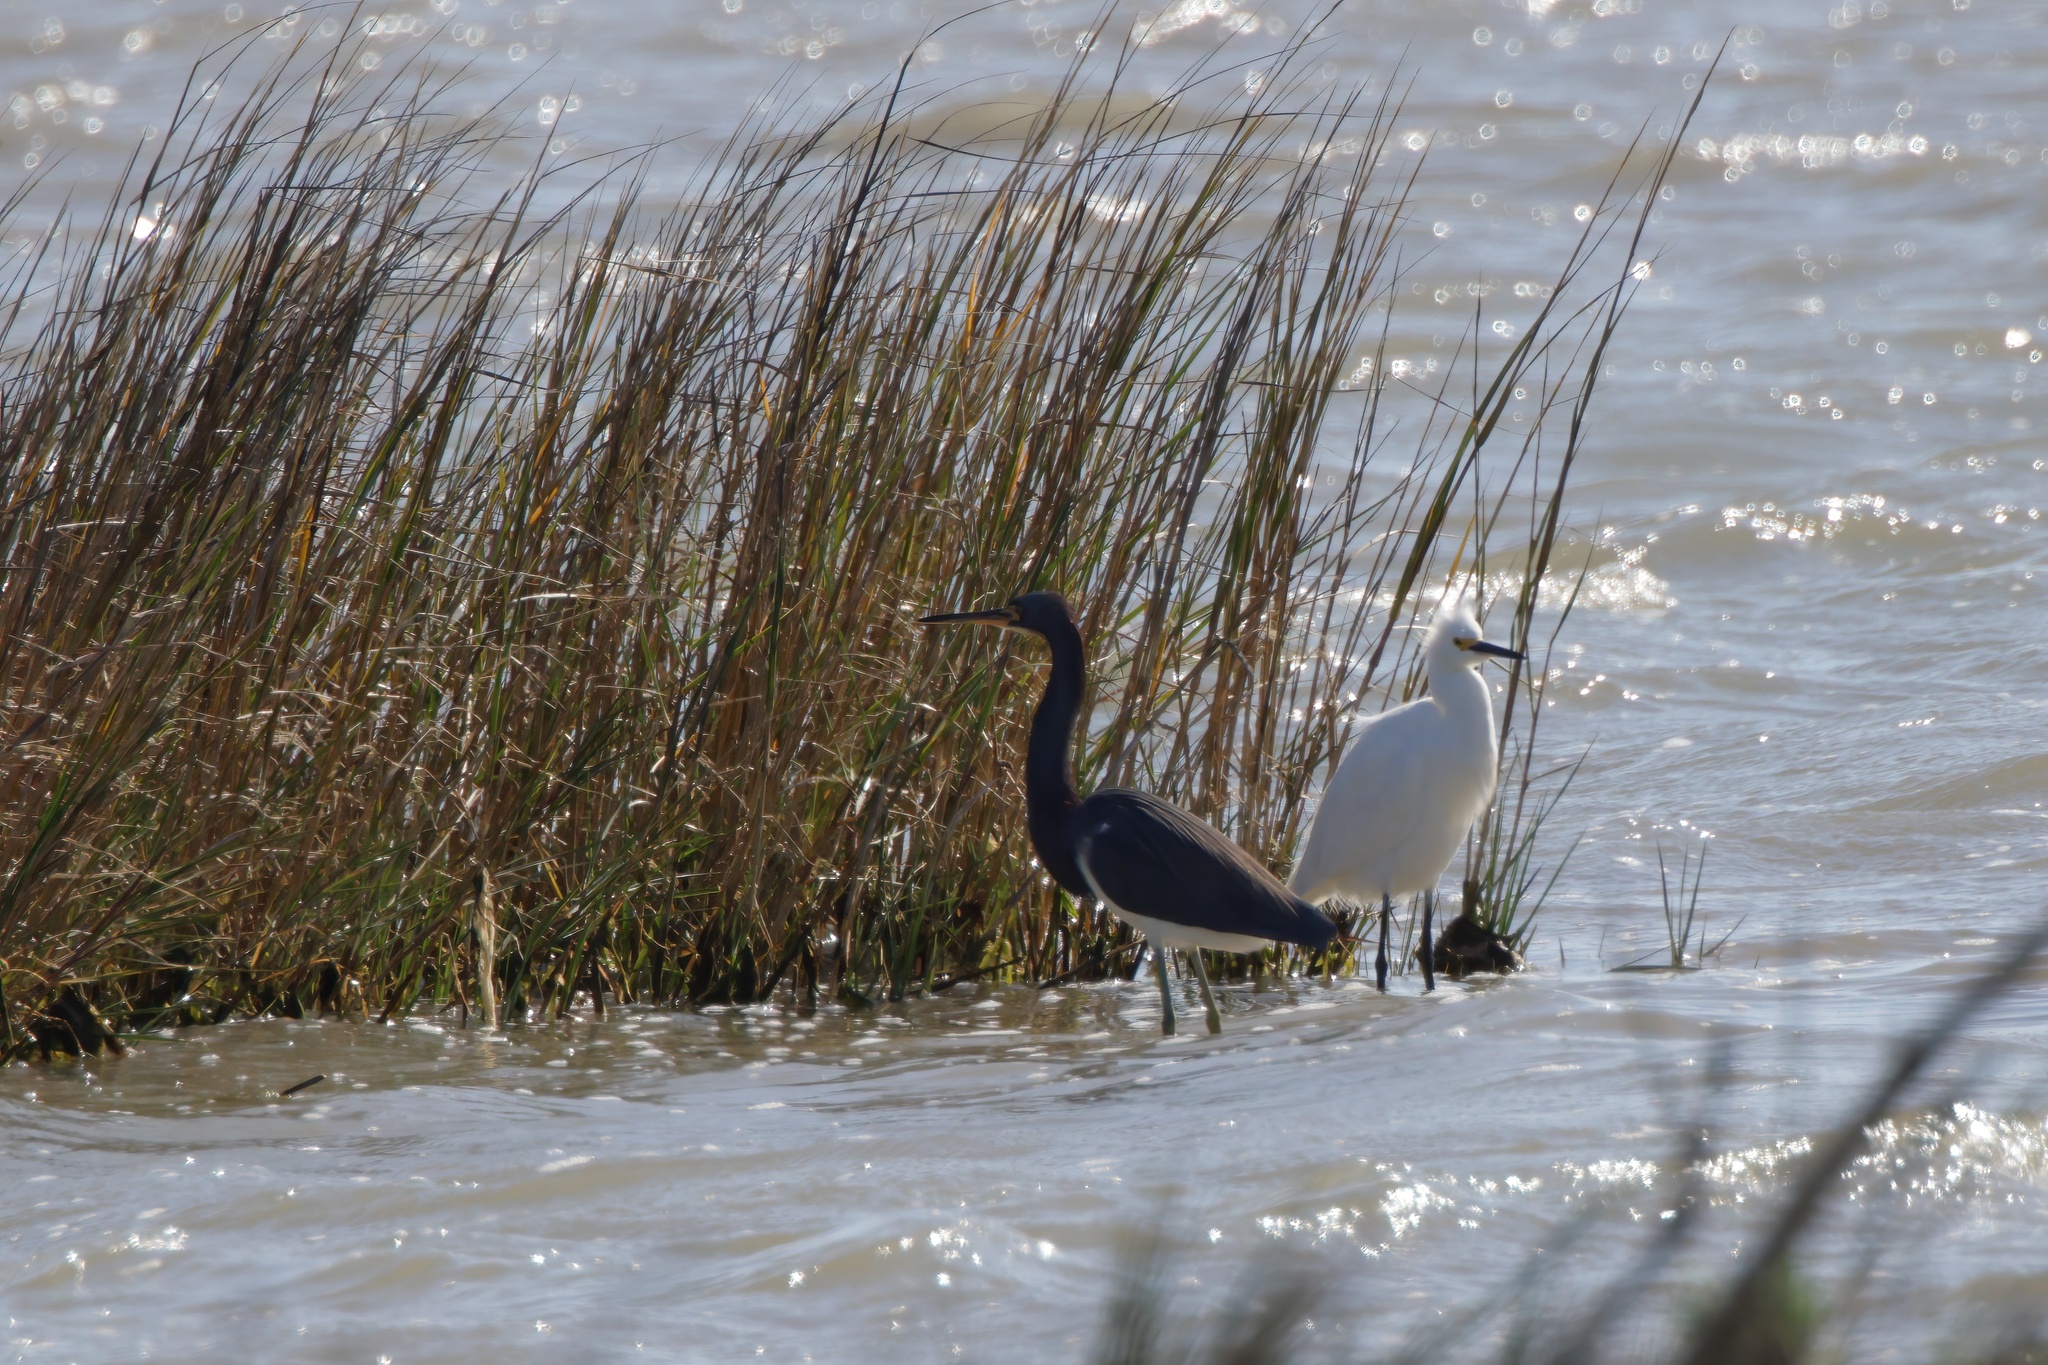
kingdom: Animalia
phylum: Chordata
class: Aves
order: Pelecaniformes
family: Ardeidae
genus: Egretta
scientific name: Egretta tricolor
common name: Tricolored heron
